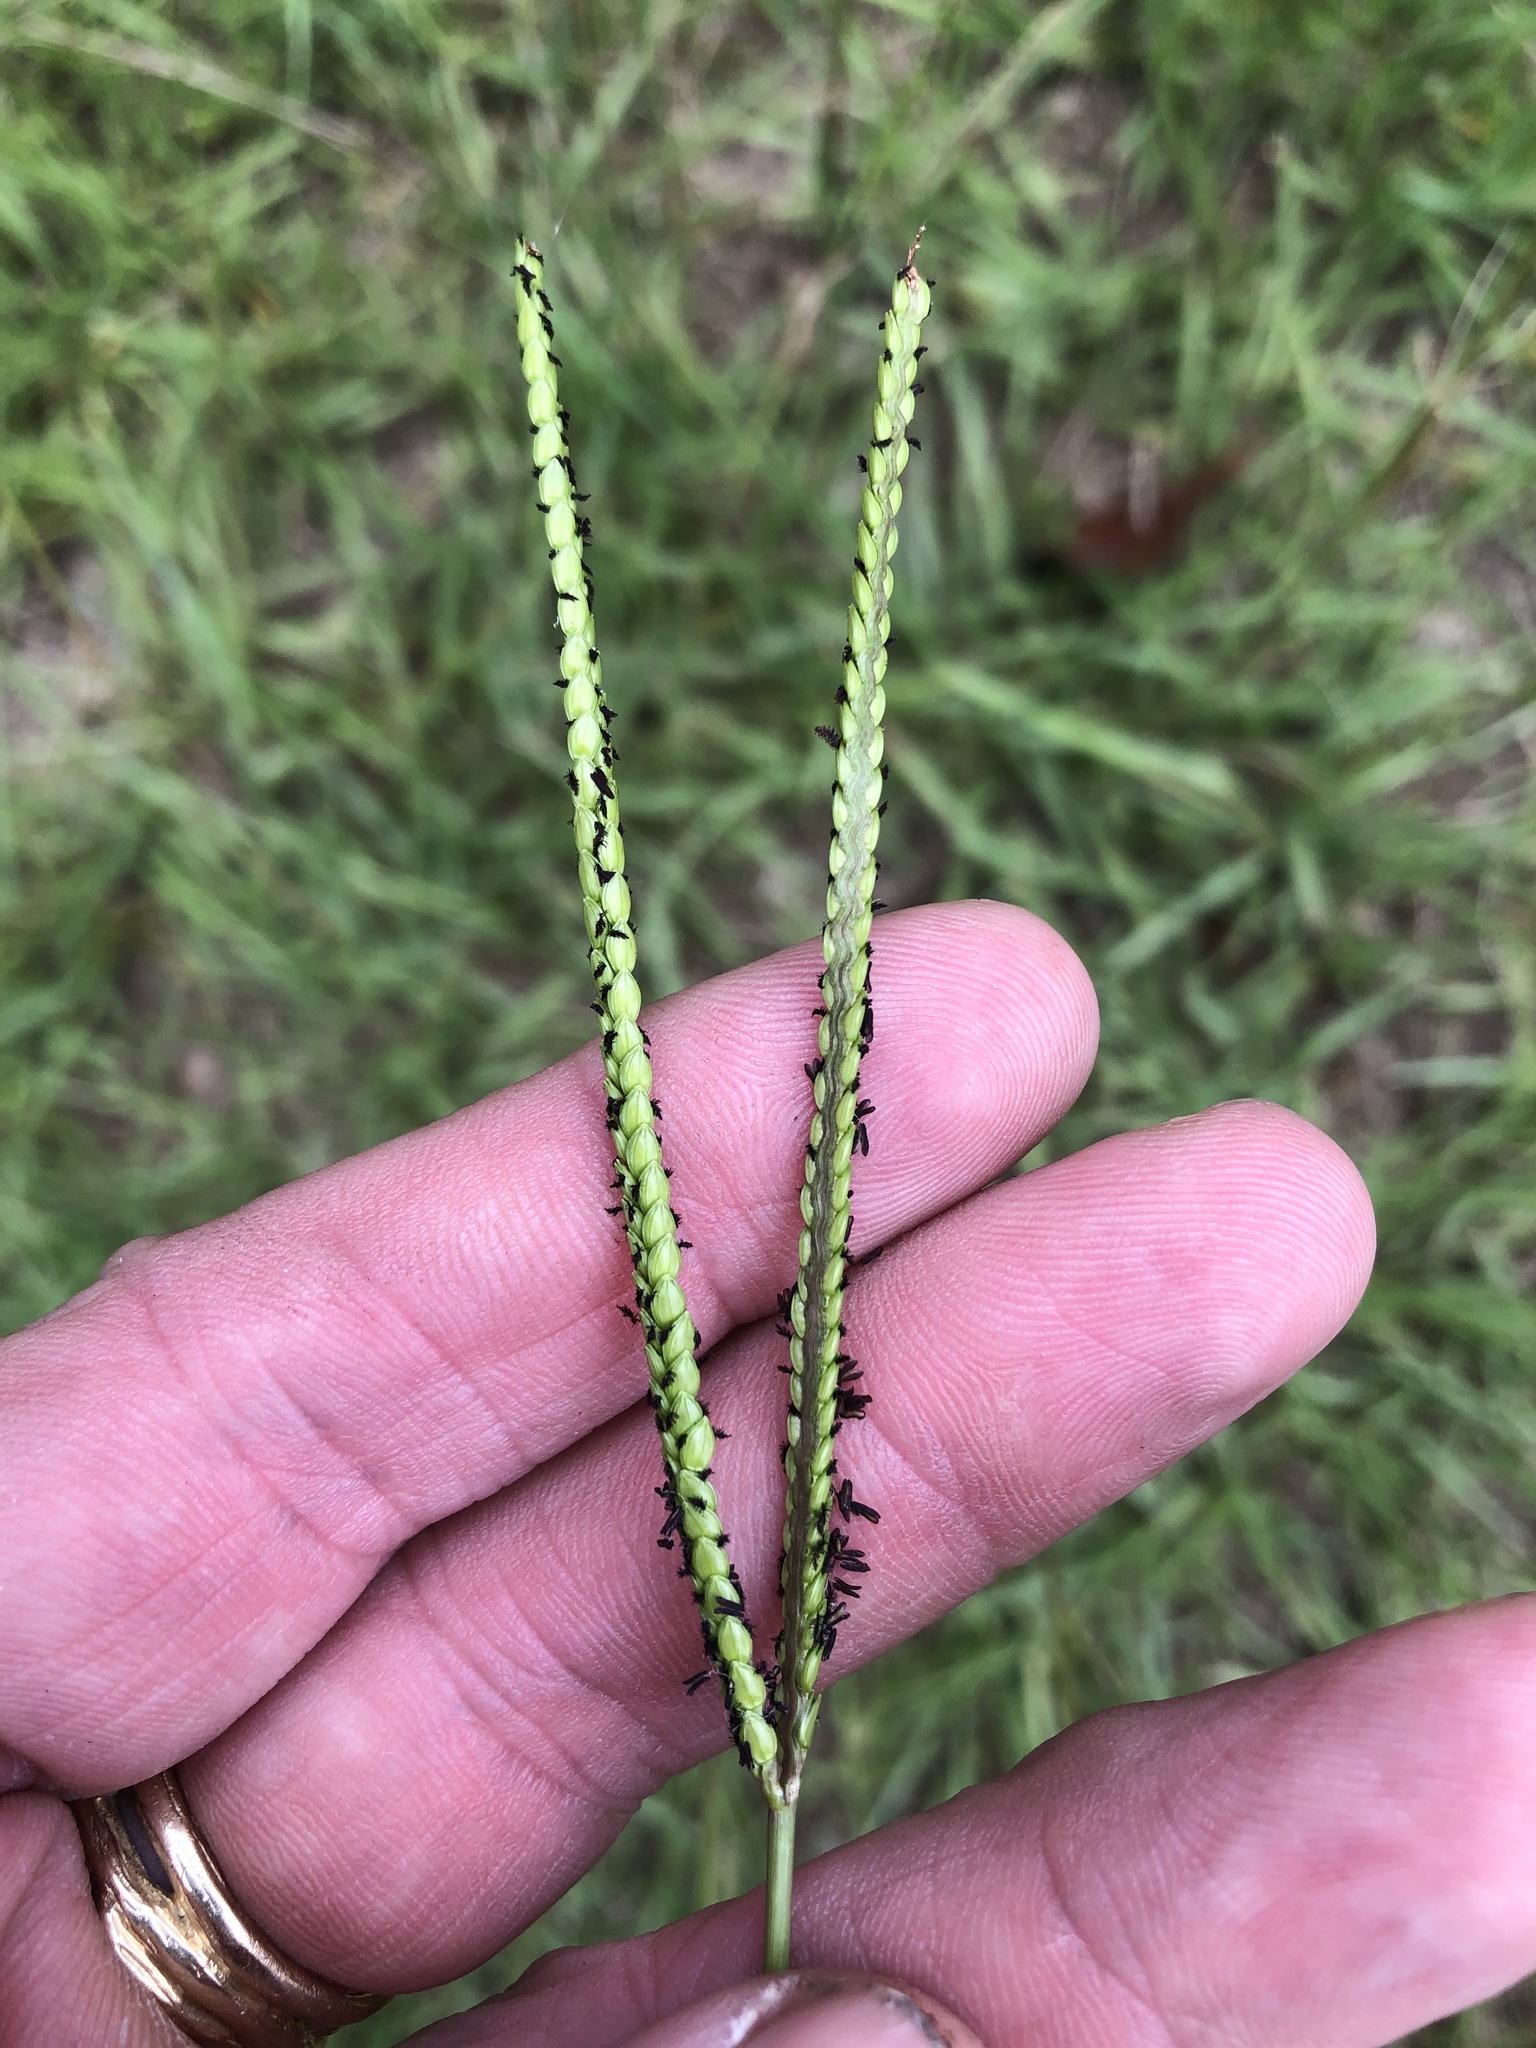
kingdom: Plantae
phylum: Tracheophyta
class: Liliopsida
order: Poales
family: Poaceae
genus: Paspalum
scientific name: Paspalum notatum
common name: Bahiagrass
